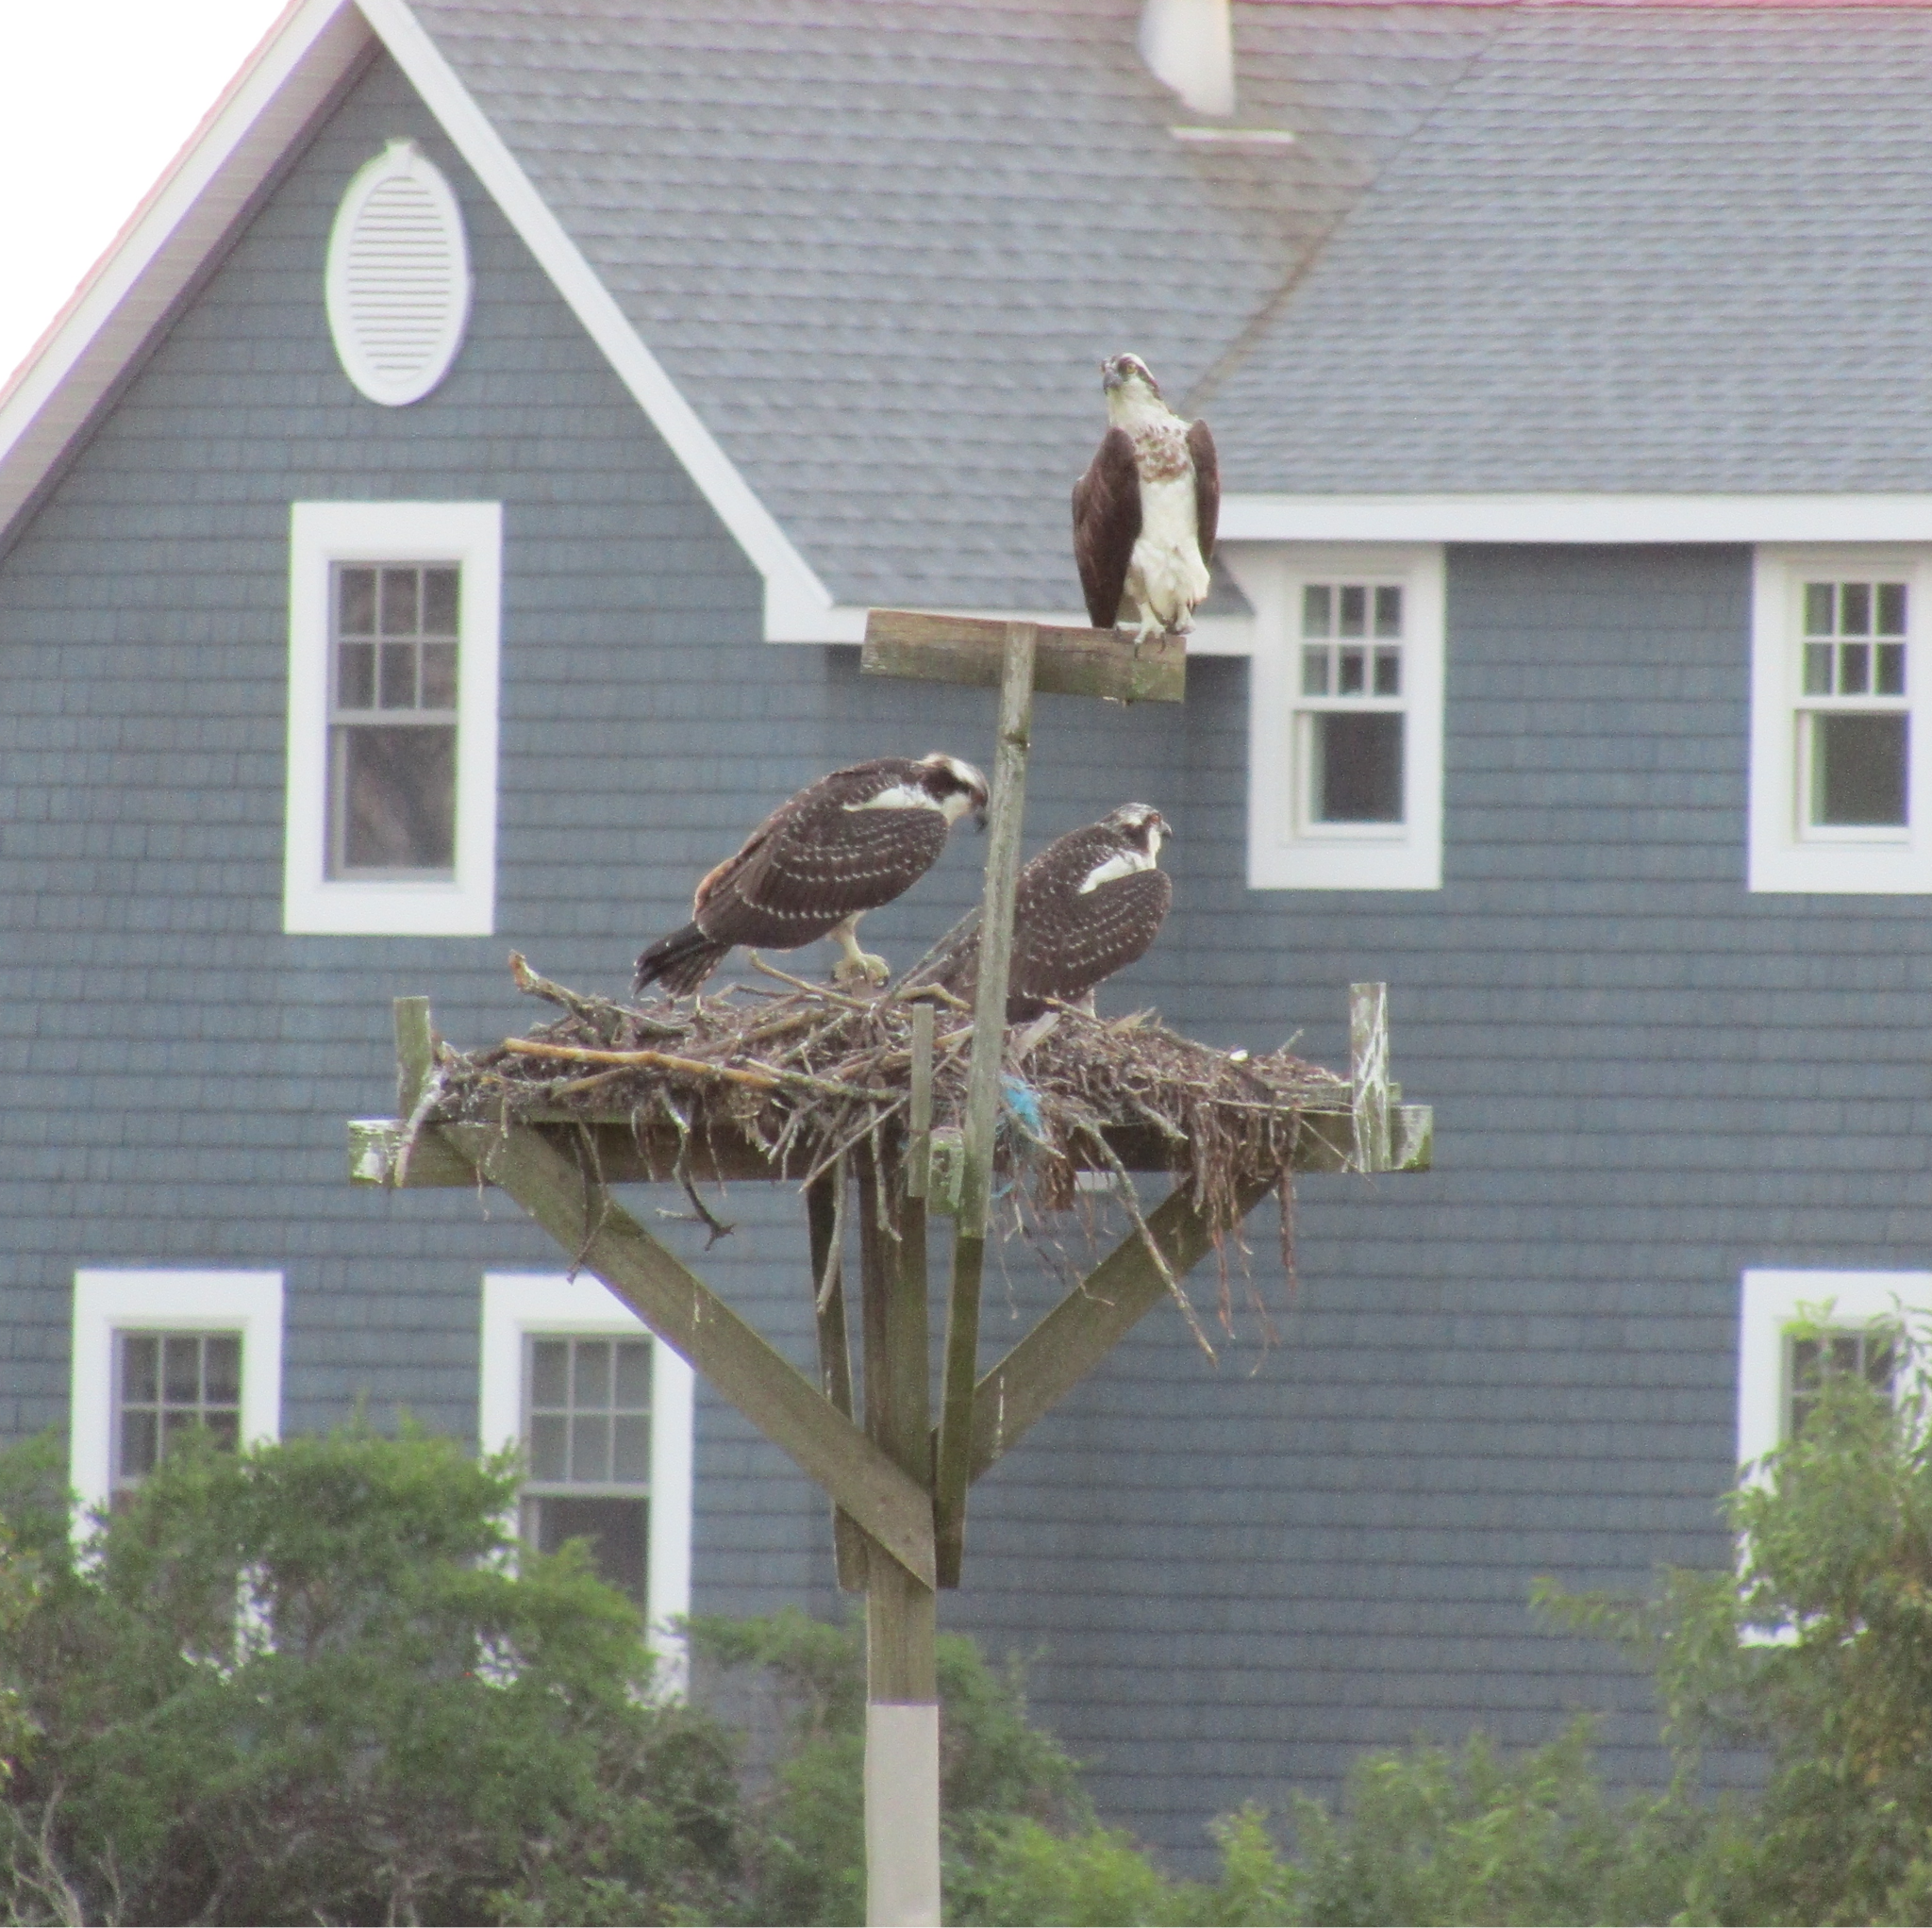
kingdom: Animalia
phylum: Chordata
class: Aves
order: Accipitriformes
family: Pandionidae
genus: Pandion
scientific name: Pandion haliaetus
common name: Osprey
